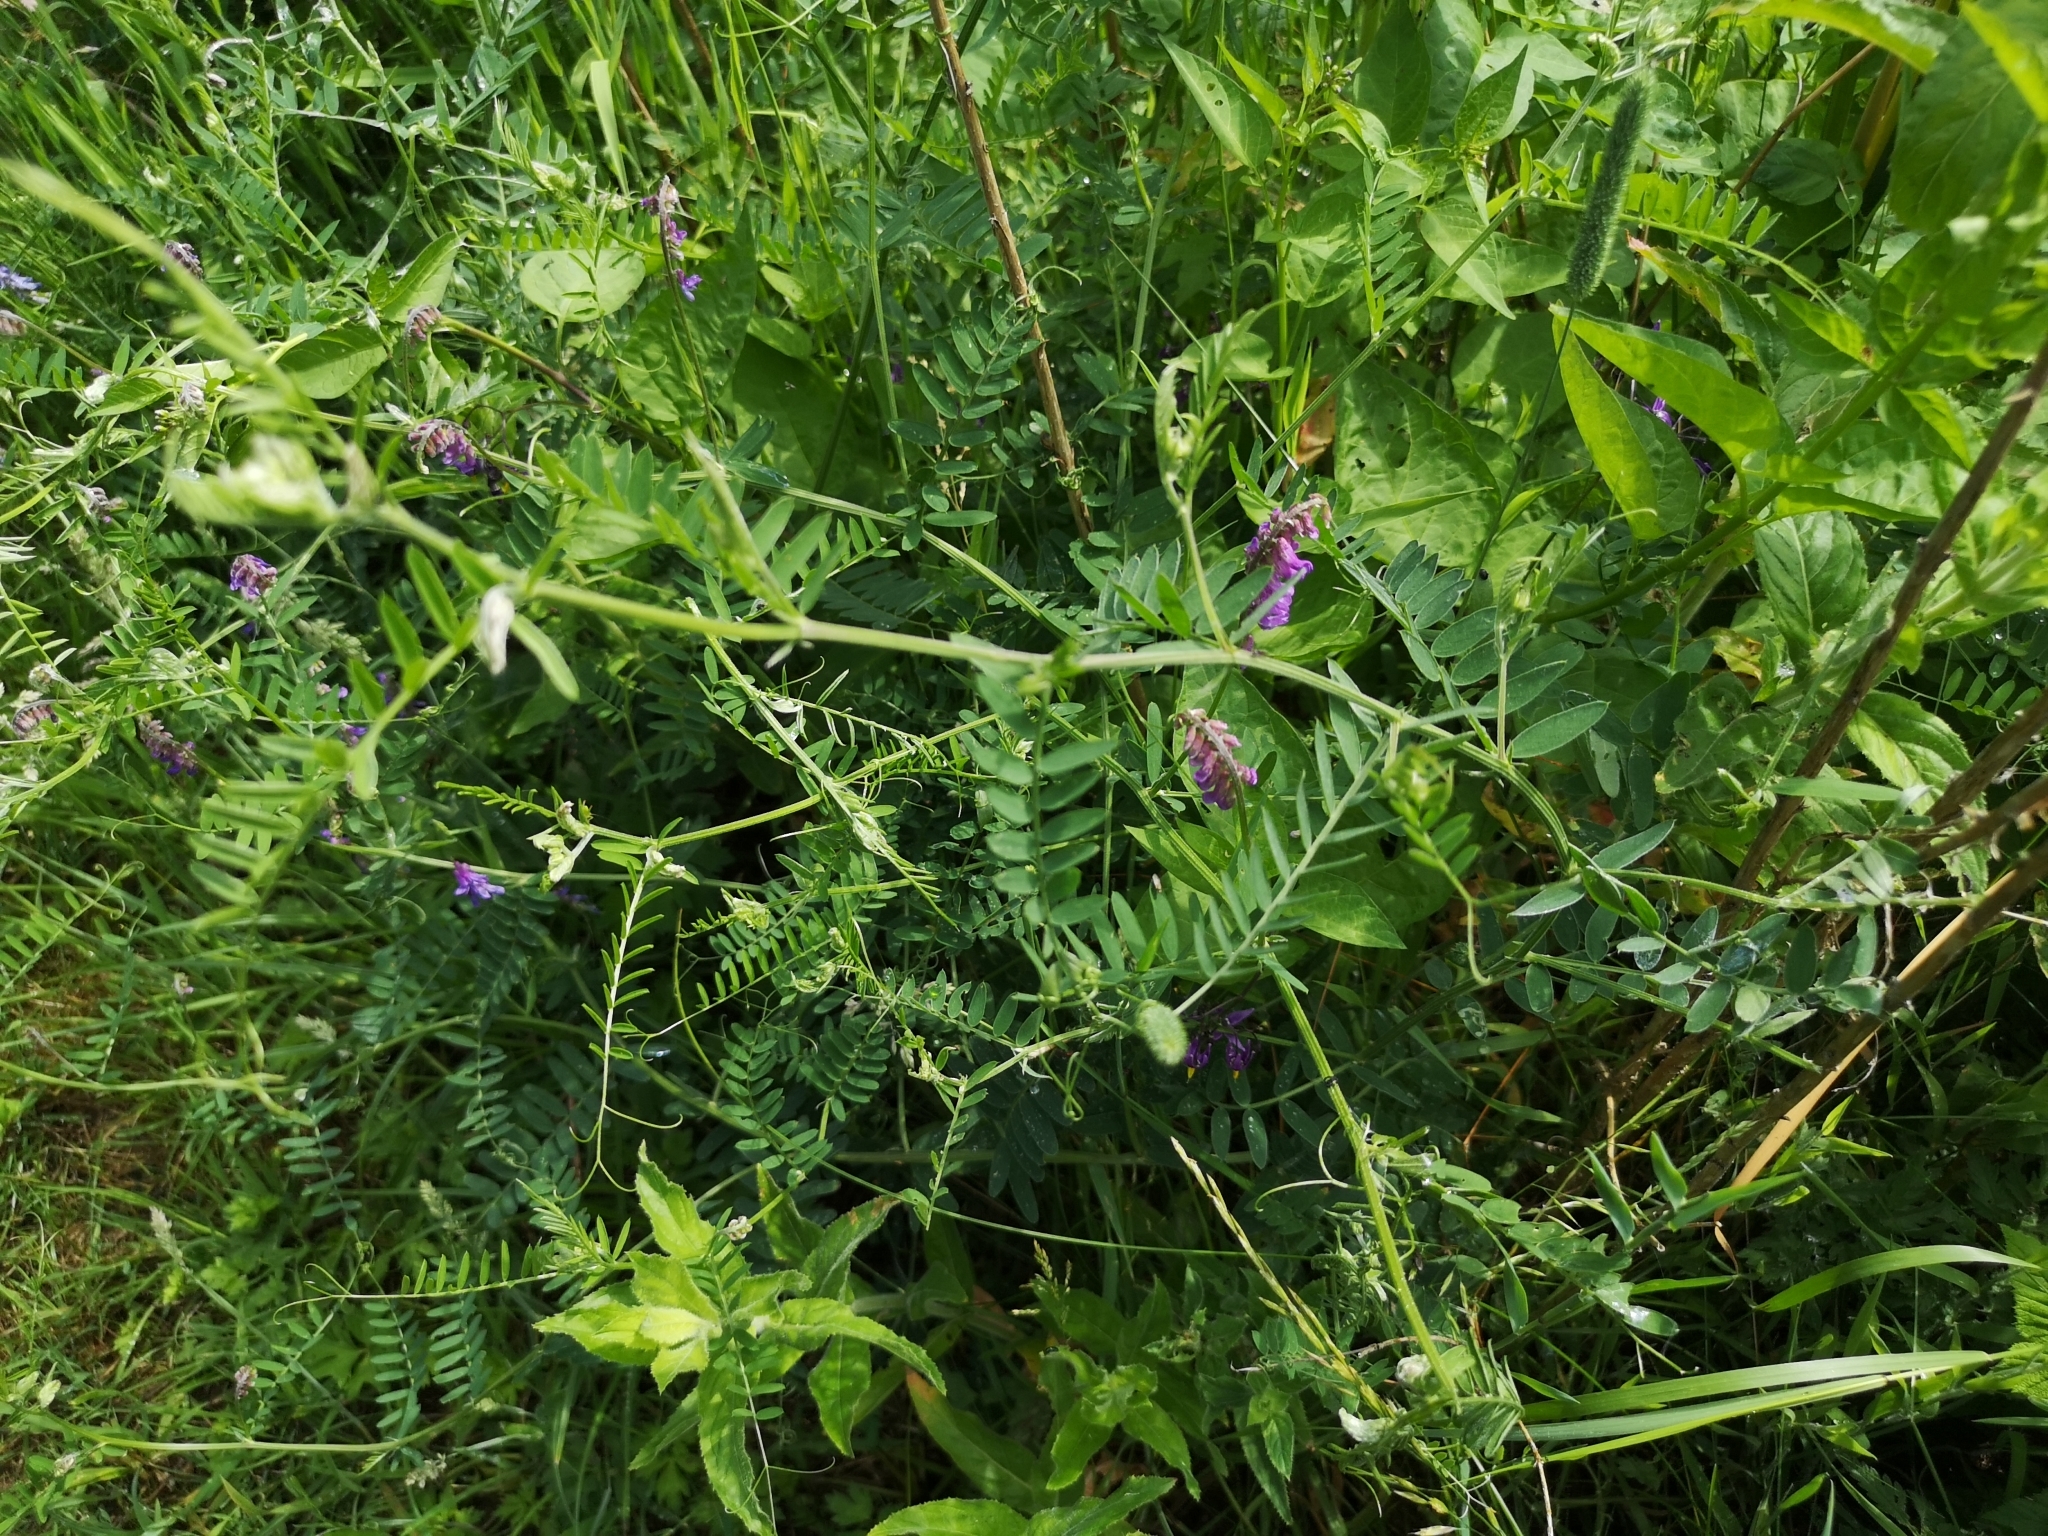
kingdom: Plantae
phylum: Tracheophyta
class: Magnoliopsida
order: Fabales
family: Fabaceae
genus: Vicia
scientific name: Vicia cracca
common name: Bird vetch
